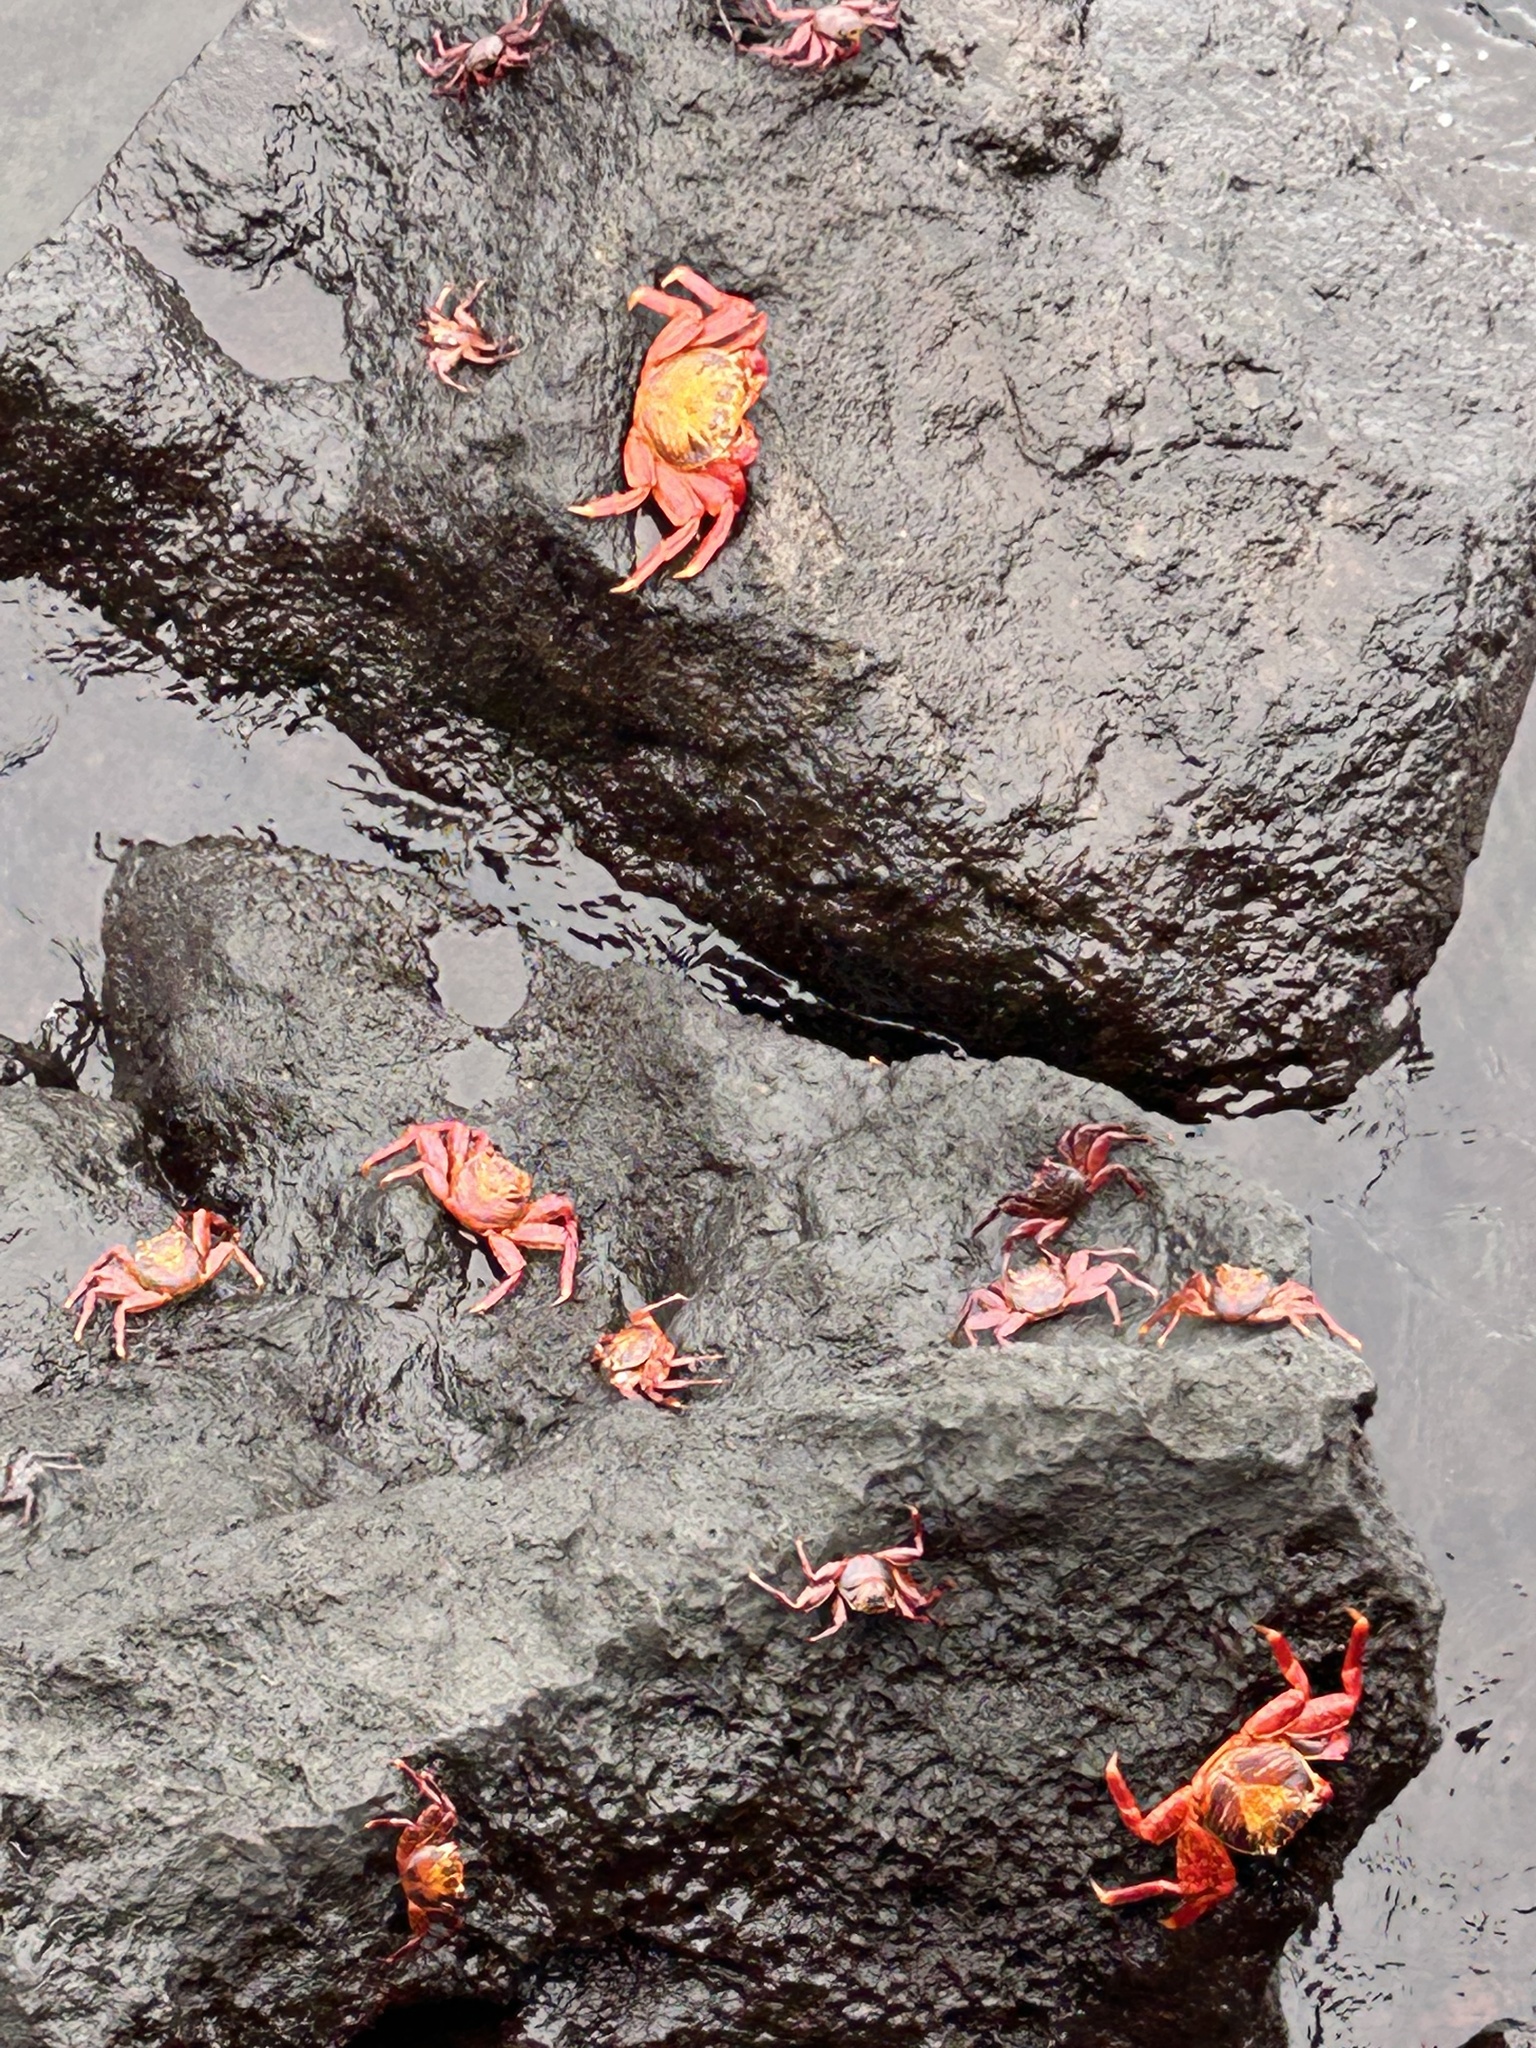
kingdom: Animalia
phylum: Arthropoda
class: Malacostraca
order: Decapoda
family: Grapsidae
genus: Grapsus
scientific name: Grapsus grapsus
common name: Sally lightfoot
